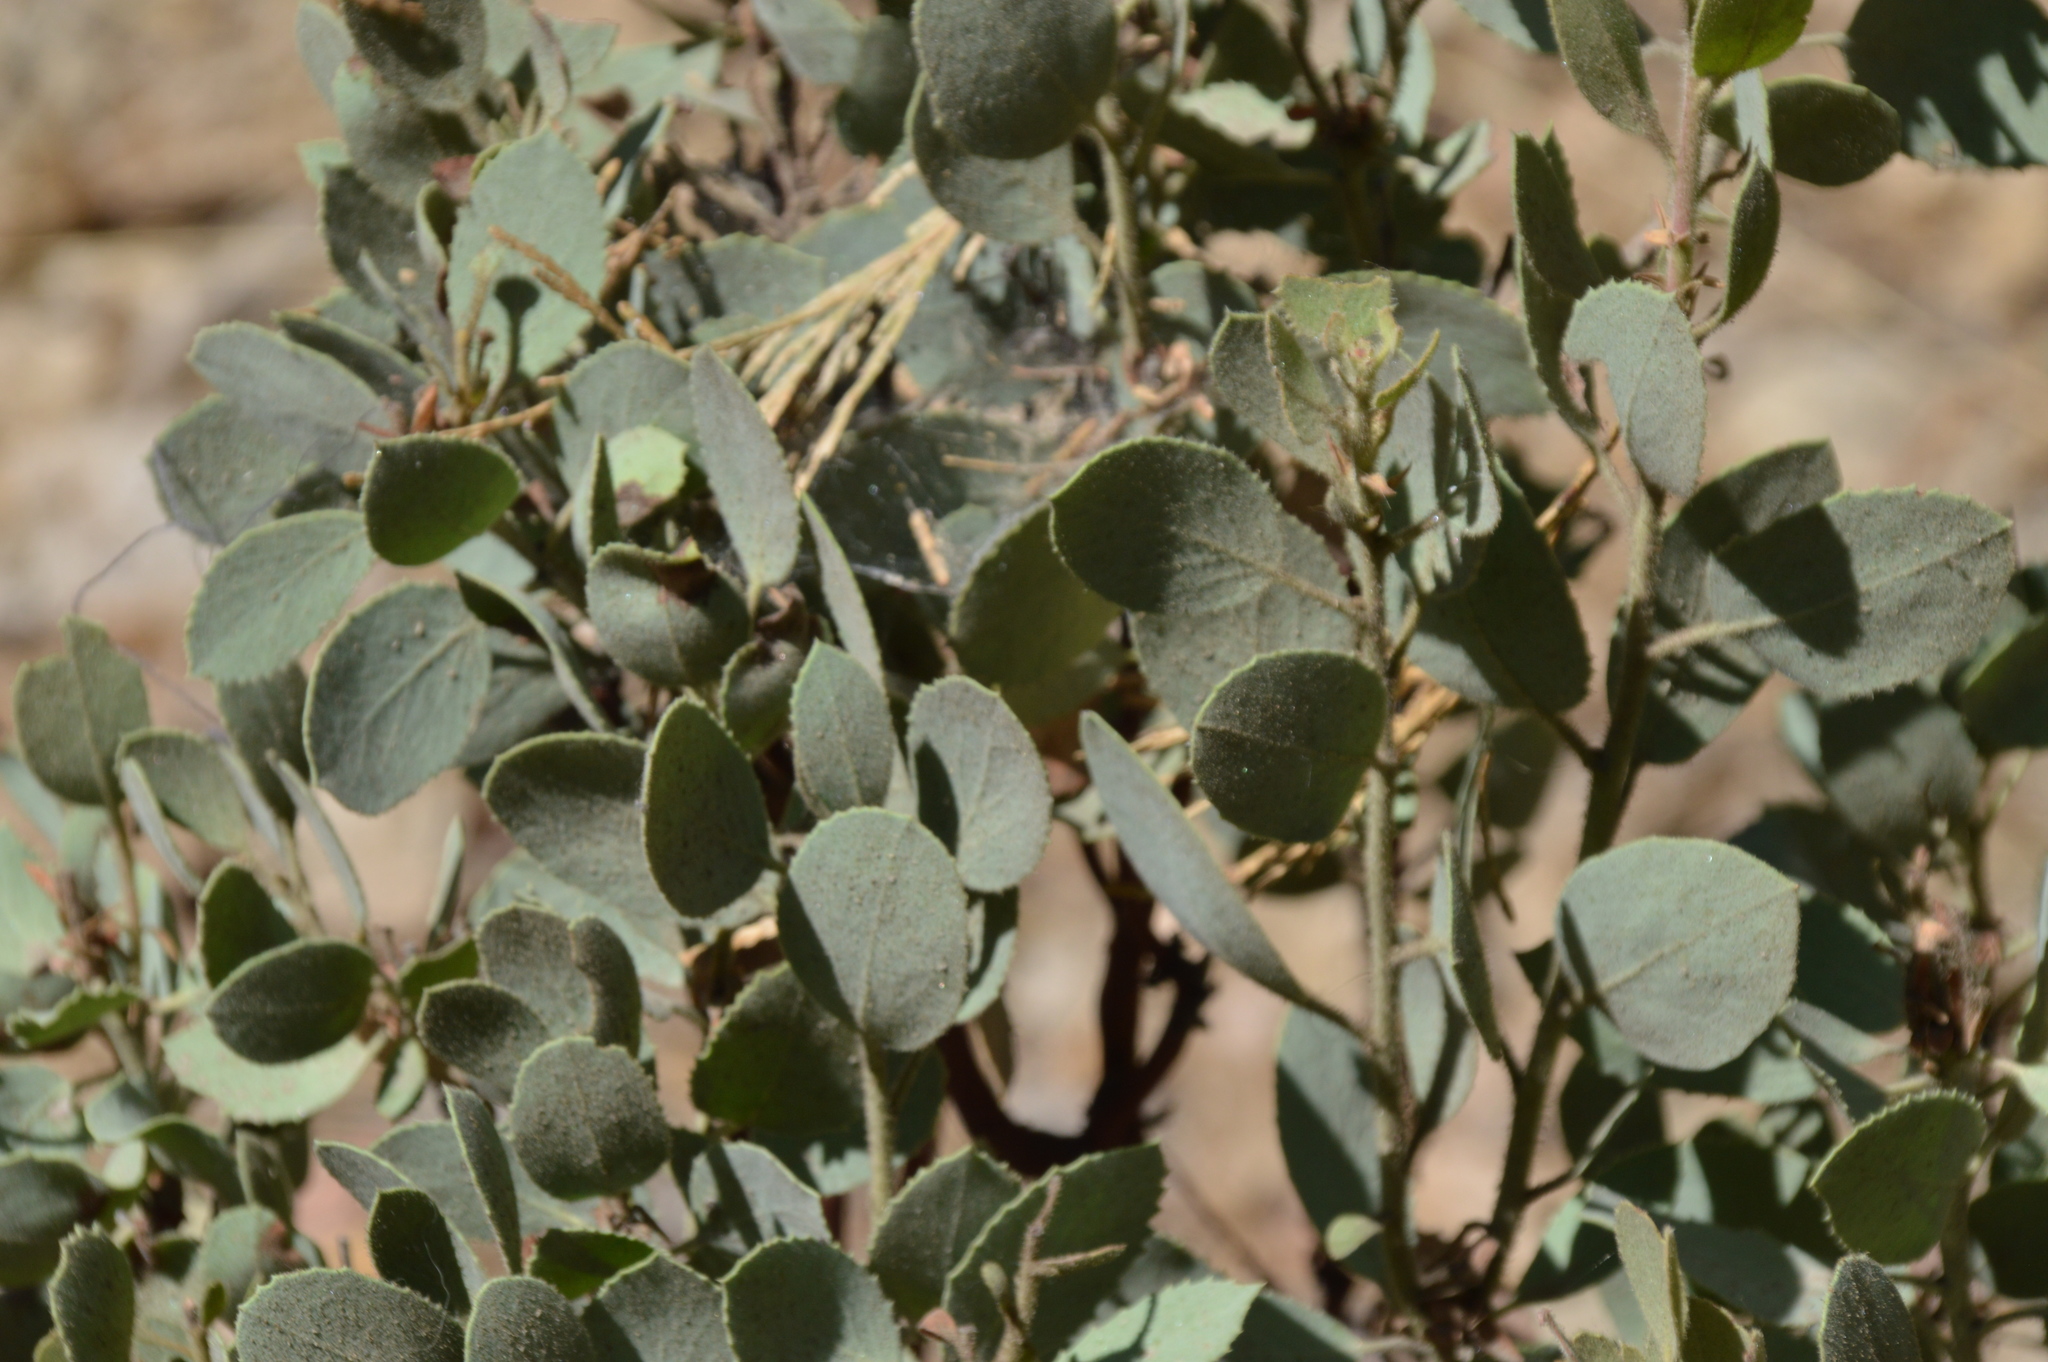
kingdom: Plantae
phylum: Tracheophyta
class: Magnoliopsida
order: Ericales
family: Ericaceae
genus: Arctostaphylos
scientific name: Arctostaphylos viscida
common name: White-leaf manzanita
